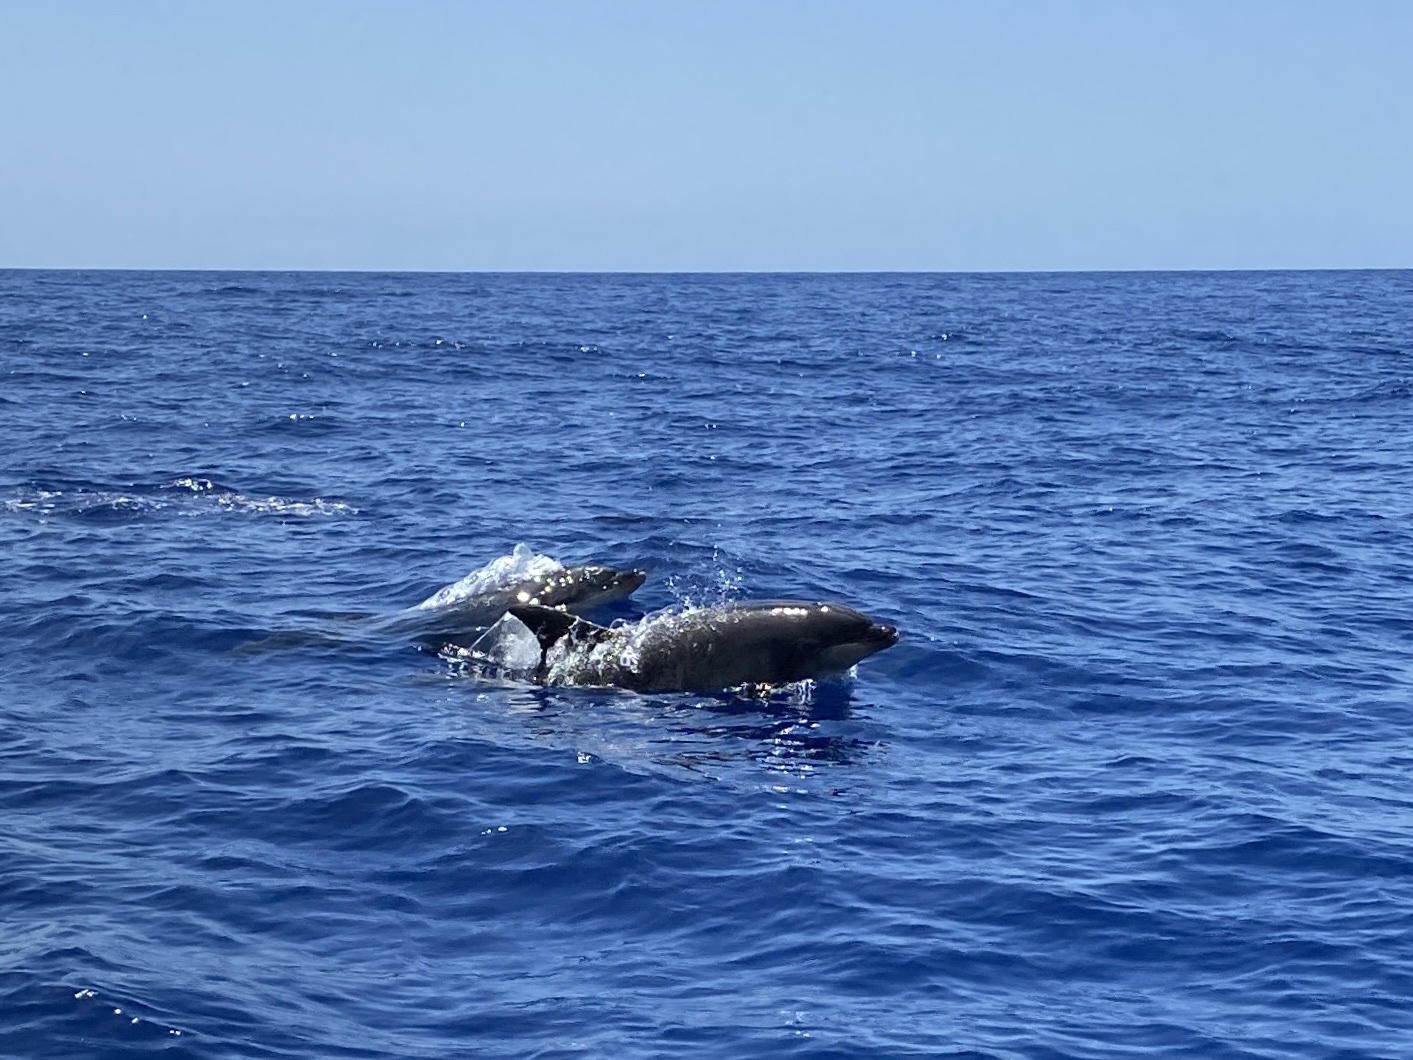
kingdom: Animalia
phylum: Chordata
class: Mammalia
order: Cetacea
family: Delphinidae
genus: Tursiops
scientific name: Tursiops truncatus
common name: Bottlenose dolphin
